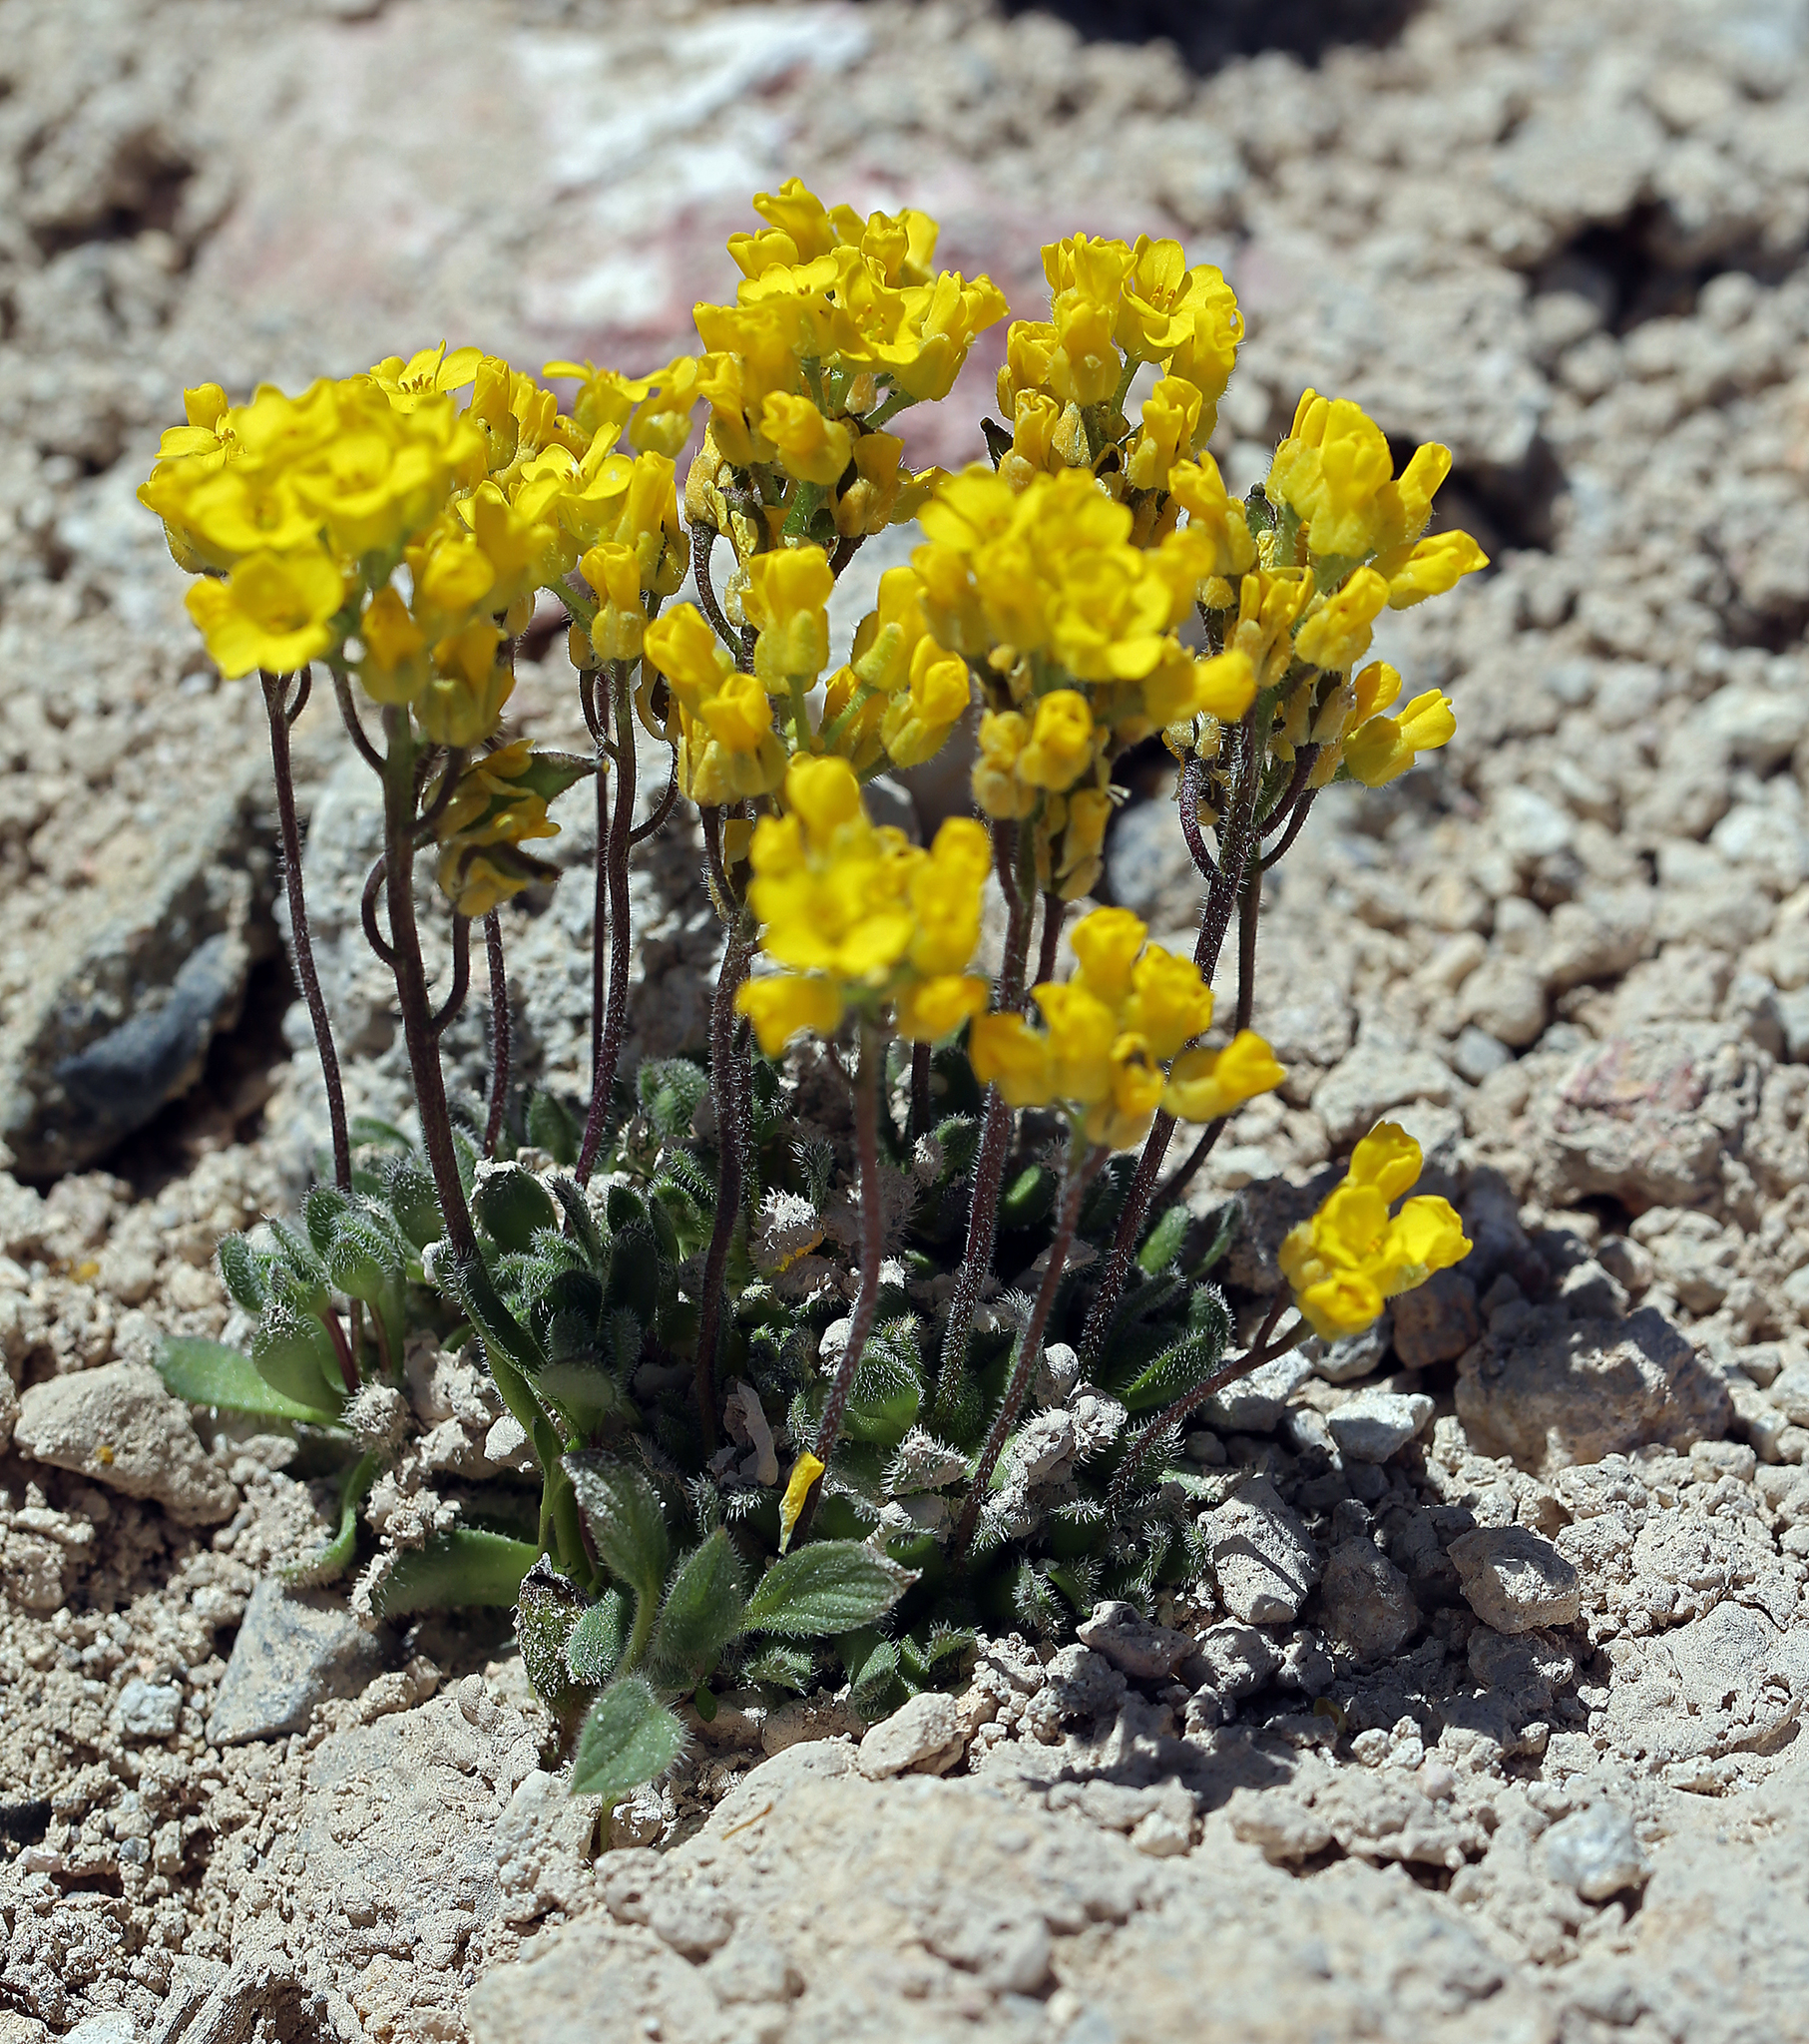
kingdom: Plantae
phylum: Tracheophyta
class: Magnoliopsida
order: Brassicales
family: Brassicaceae
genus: Draba
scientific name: Draba lemmonii
